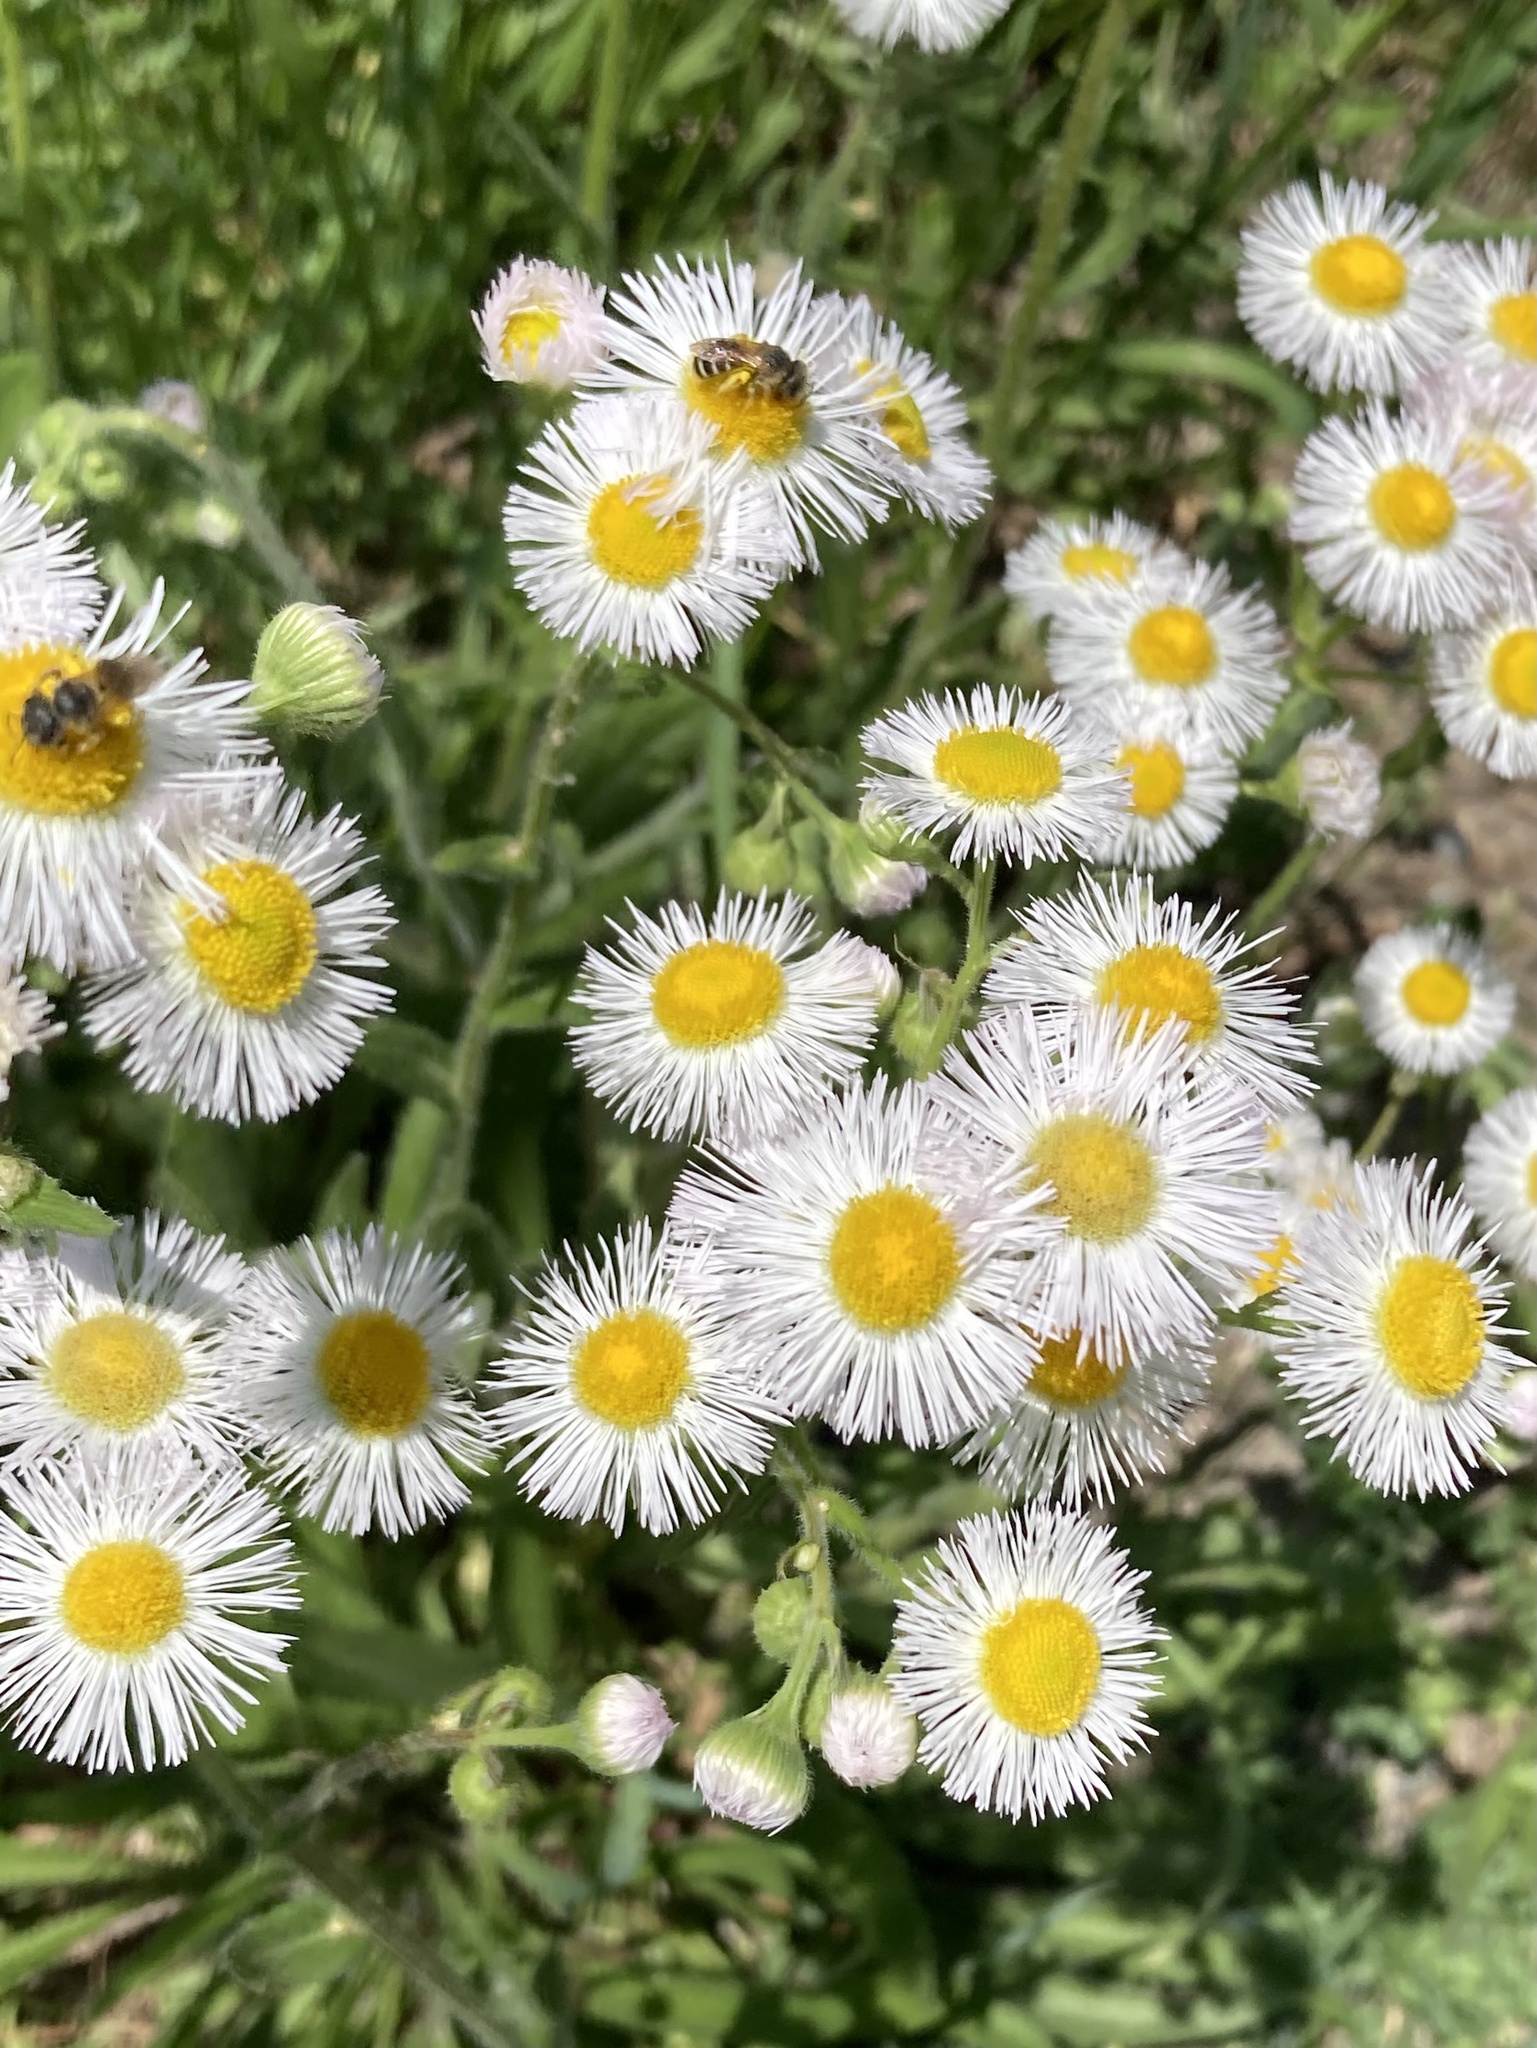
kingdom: Plantae
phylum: Tracheophyta
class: Magnoliopsida
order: Asterales
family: Asteraceae
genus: Erigeron
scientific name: Erigeron philadelphicus
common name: Robin's-plantain
